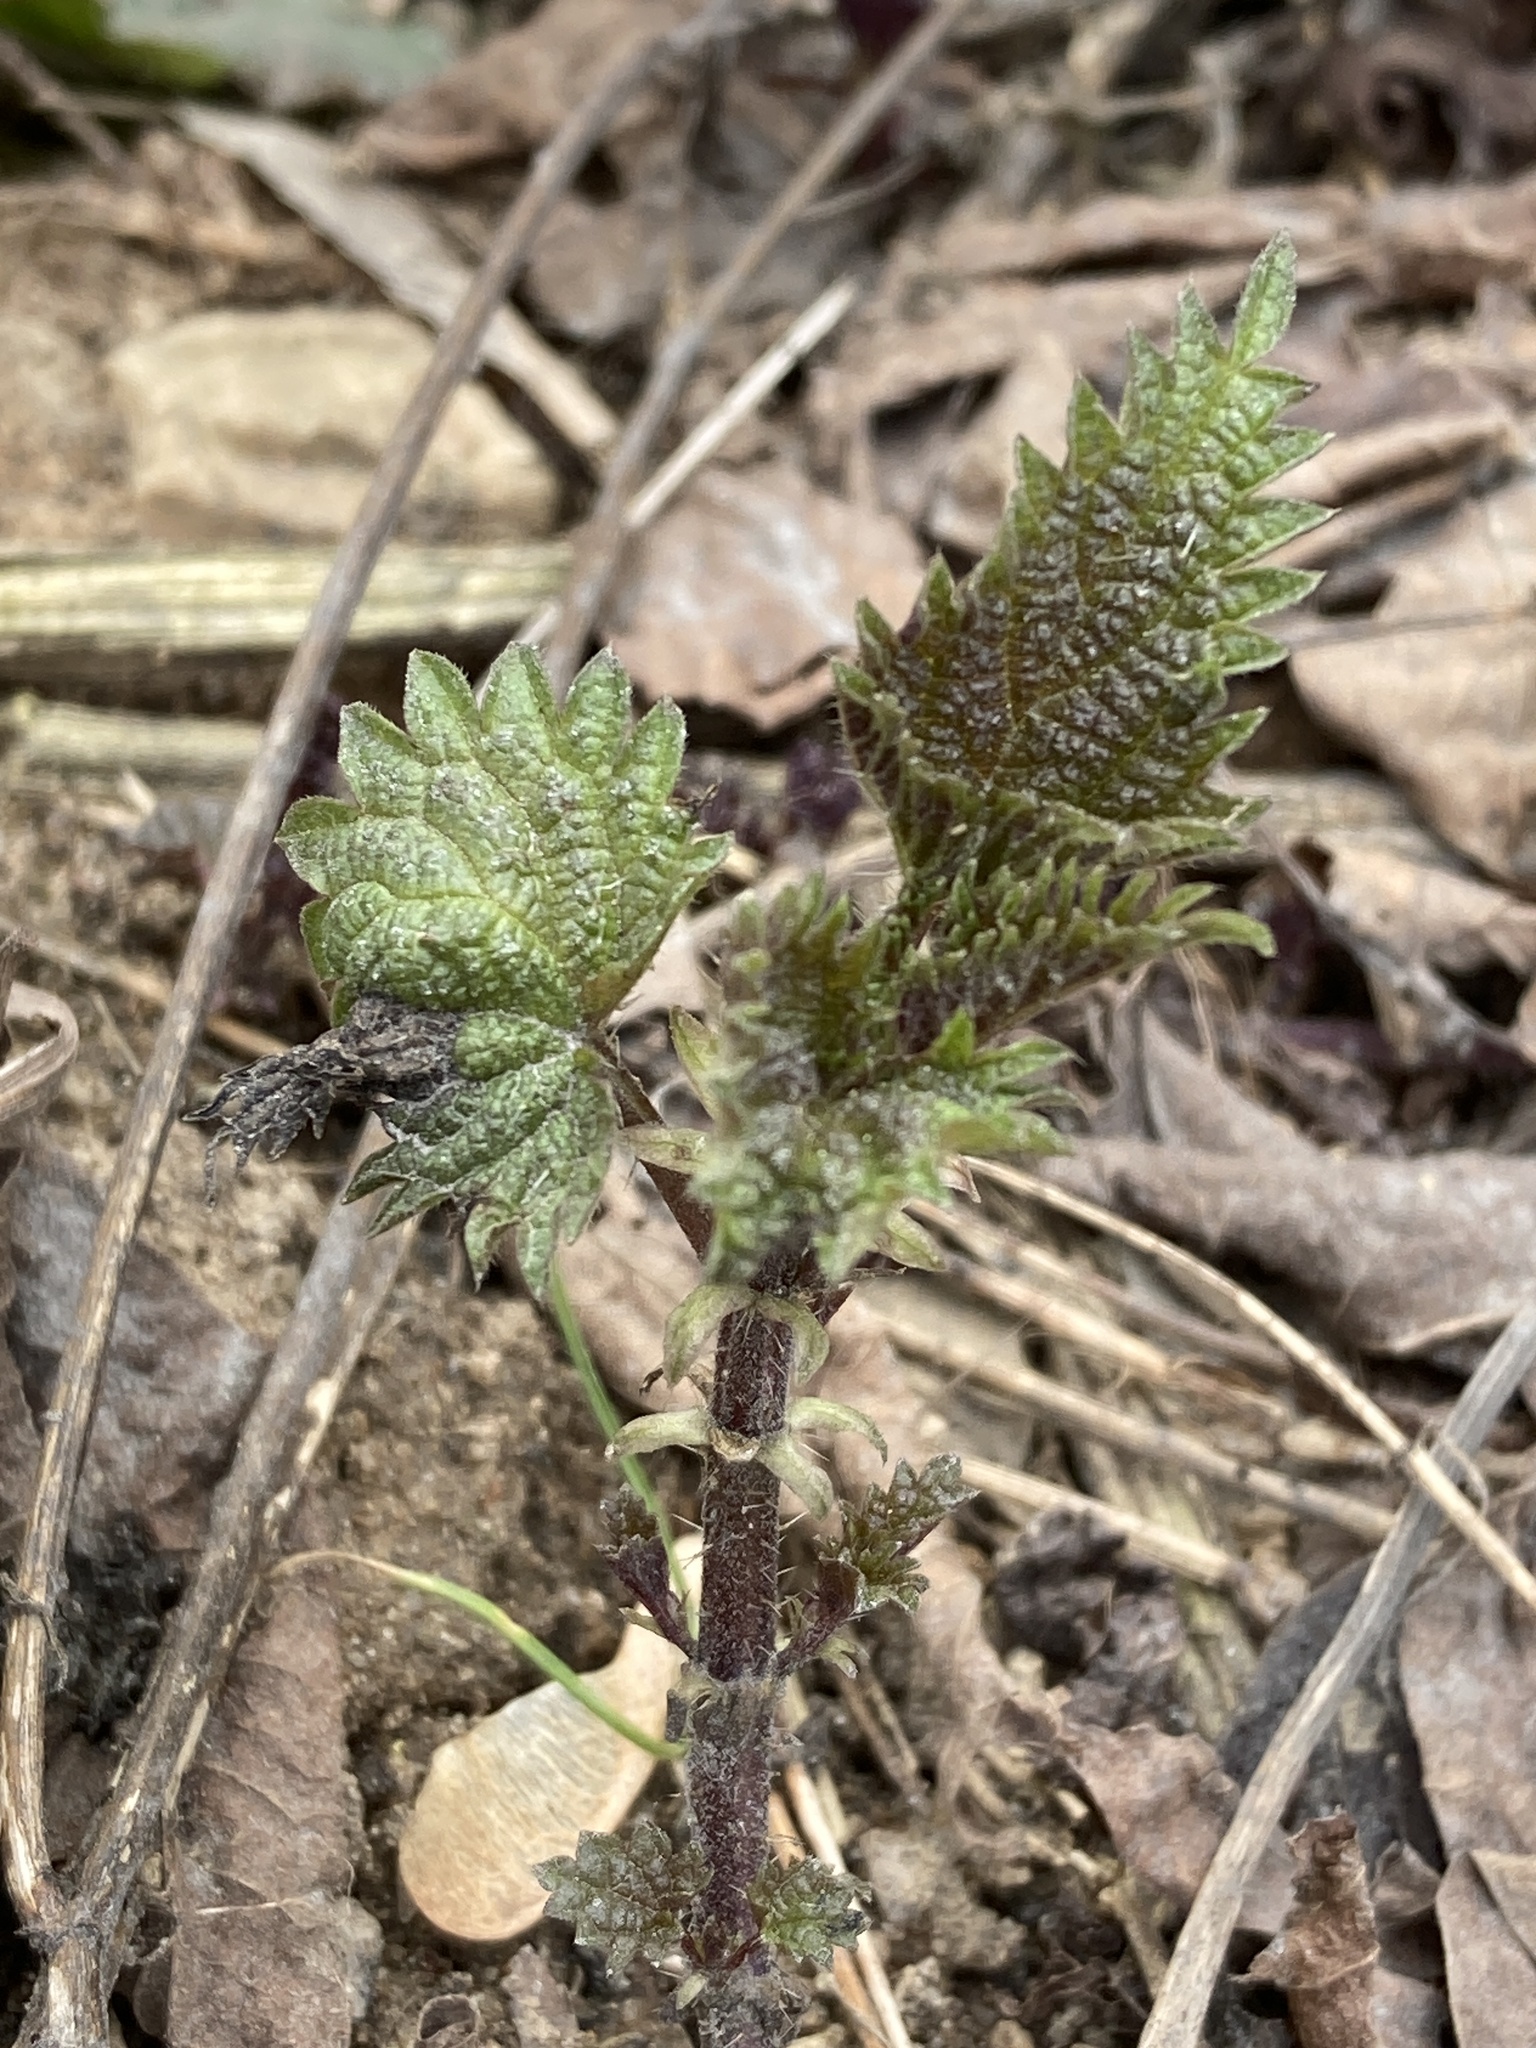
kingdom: Plantae
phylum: Tracheophyta
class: Magnoliopsida
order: Rosales
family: Urticaceae
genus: Urtica
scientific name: Urtica dioica
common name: Common nettle
